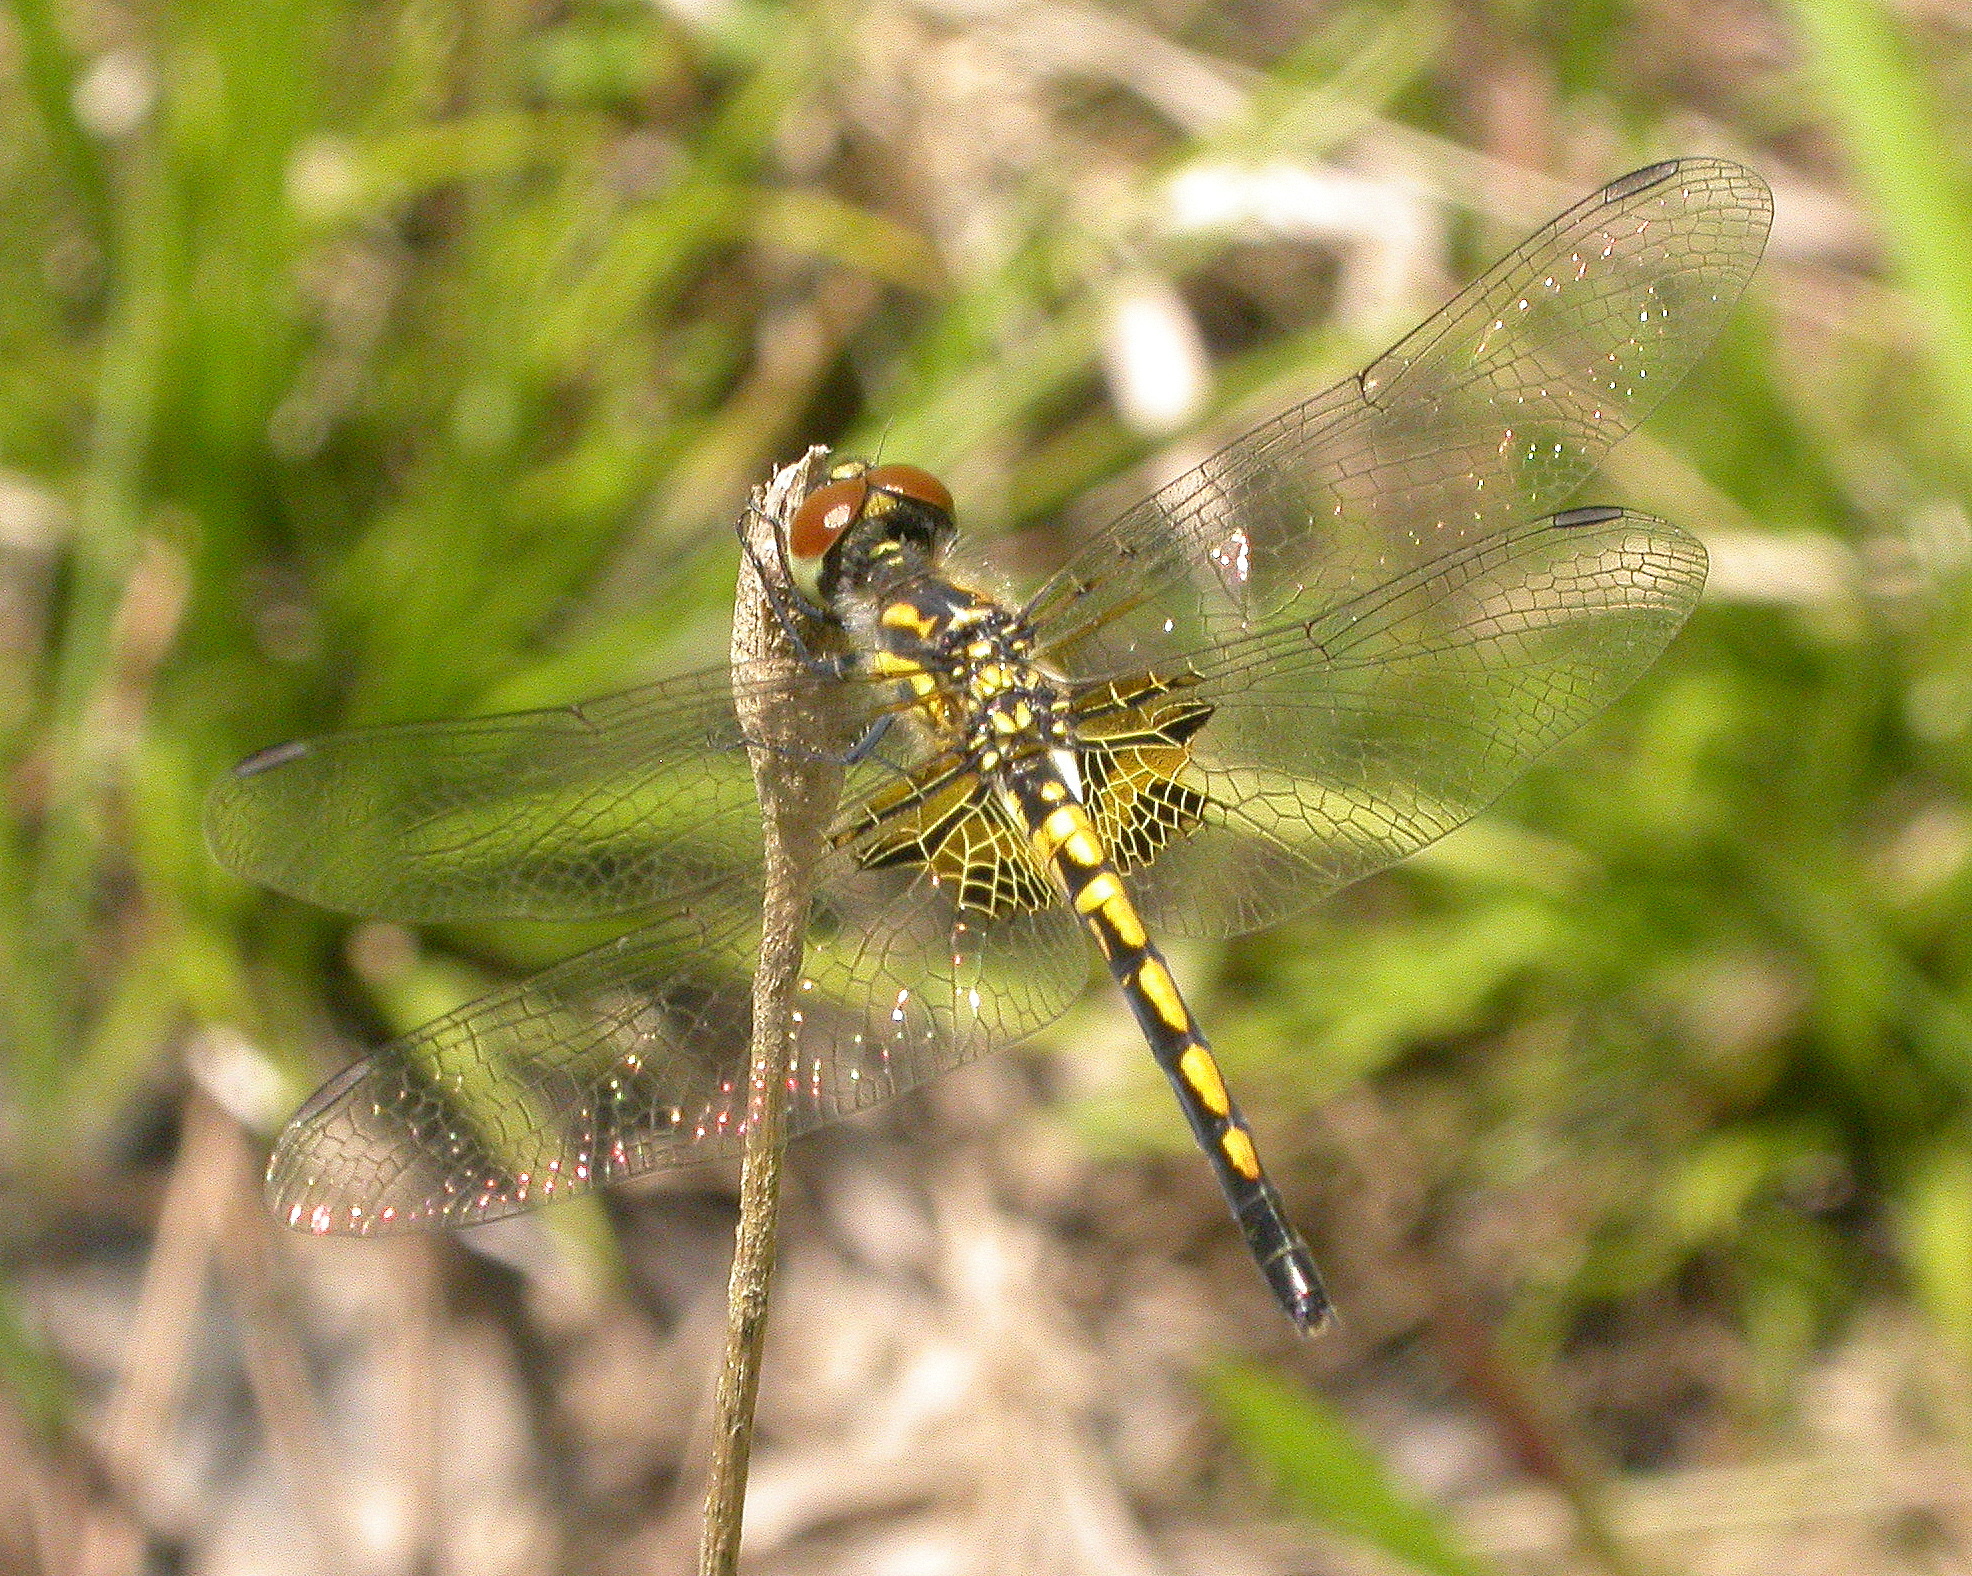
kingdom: Animalia
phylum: Arthropoda
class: Insecta
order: Odonata
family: Libellulidae
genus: Celithemis
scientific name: Celithemis ornata
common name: Ornate pennant
